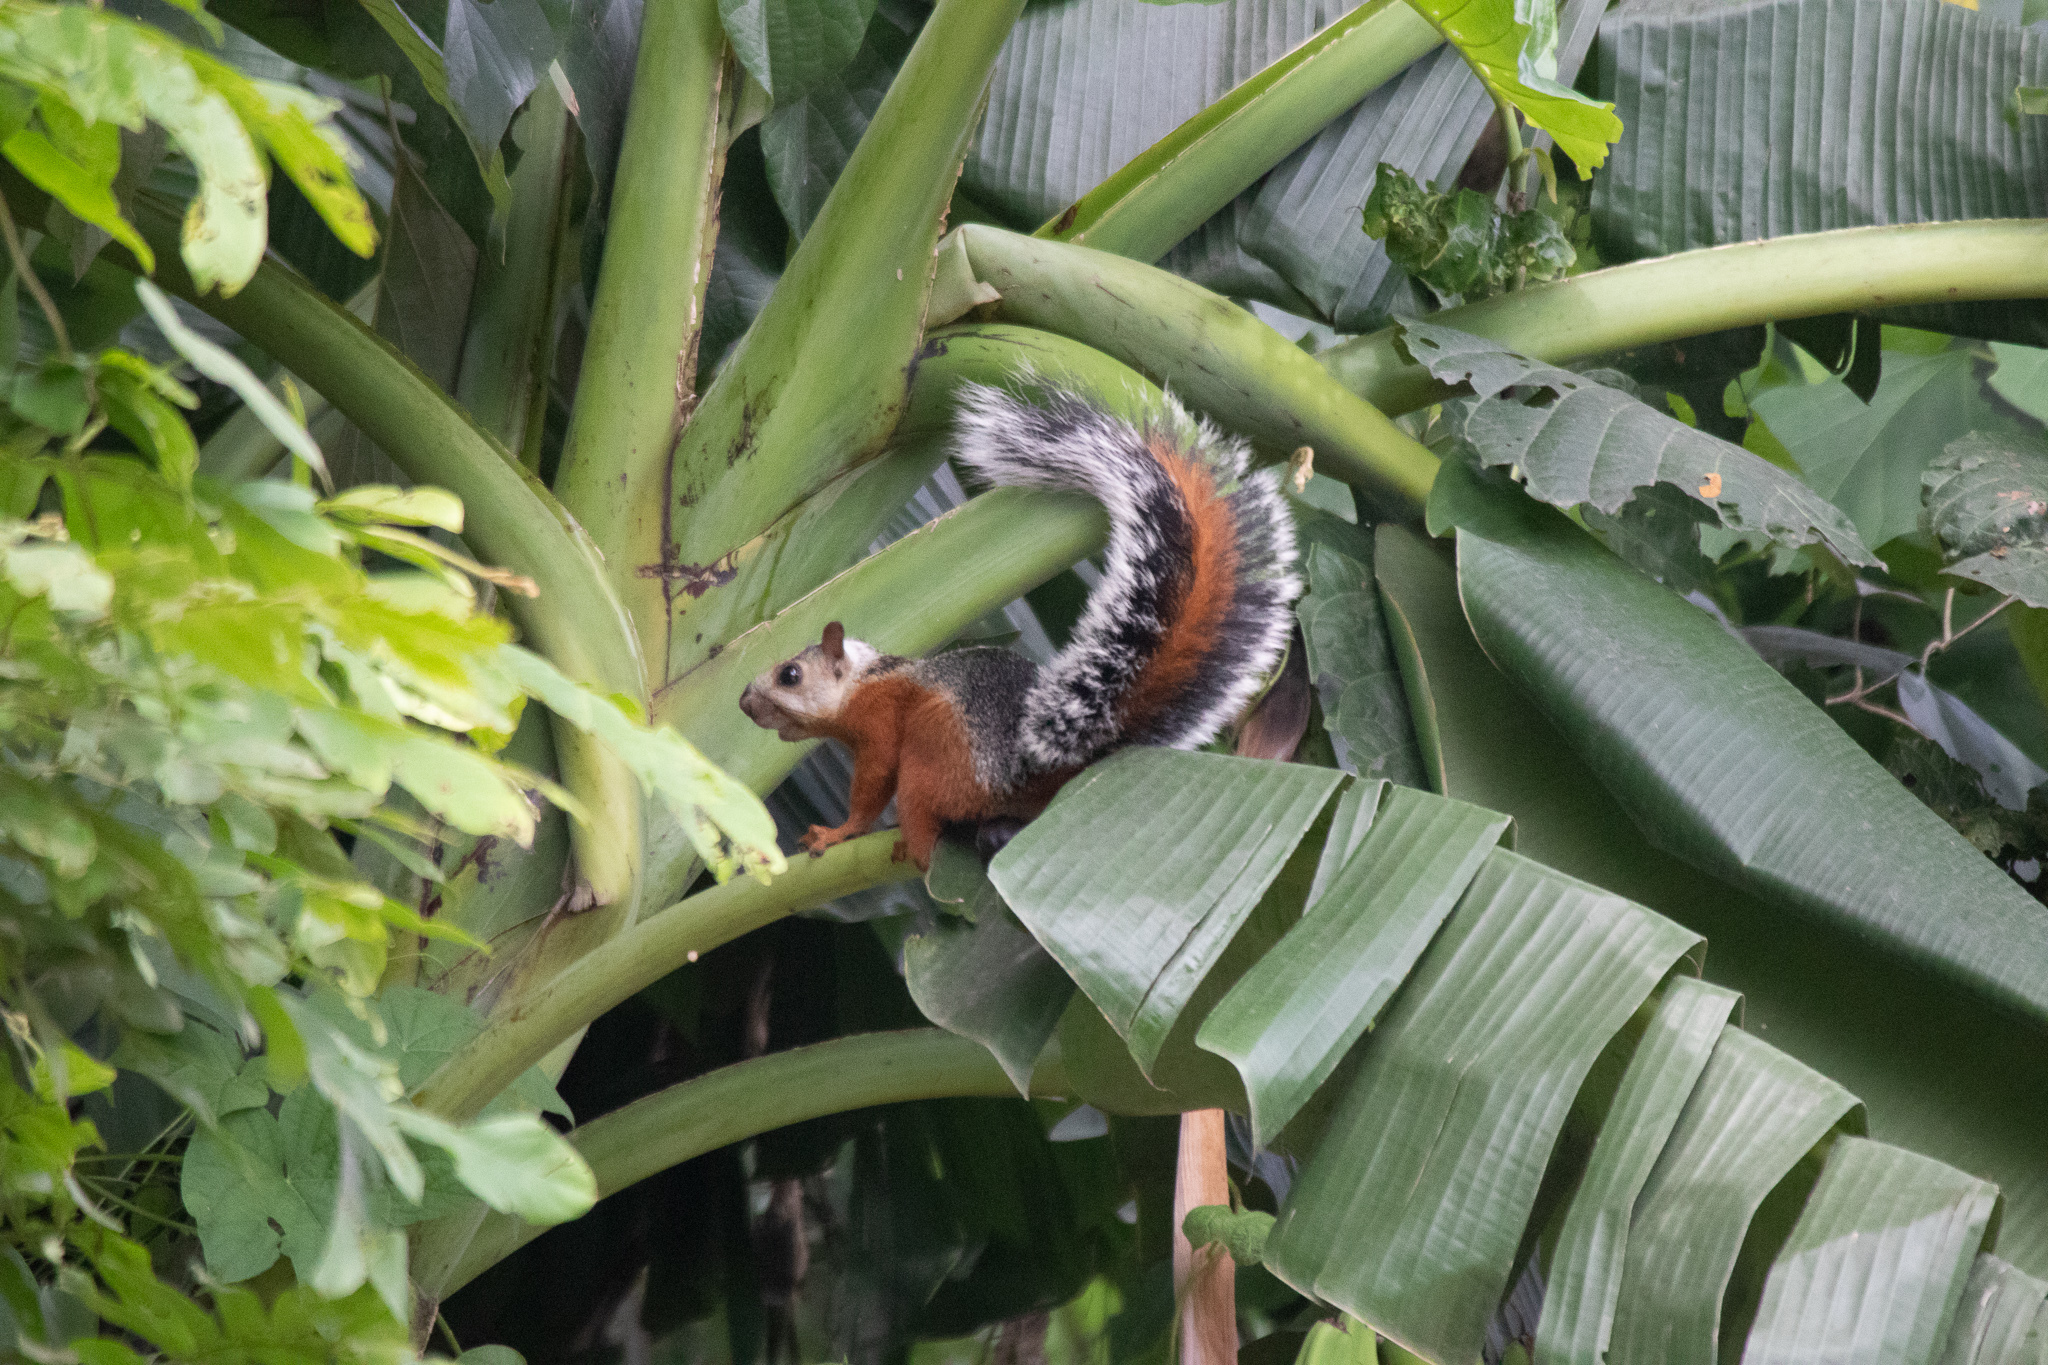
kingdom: Animalia
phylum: Chordata
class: Mammalia
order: Rodentia
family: Sciuridae
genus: Sciurus
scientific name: Sciurus variegatoides
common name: Variegated squirrel
